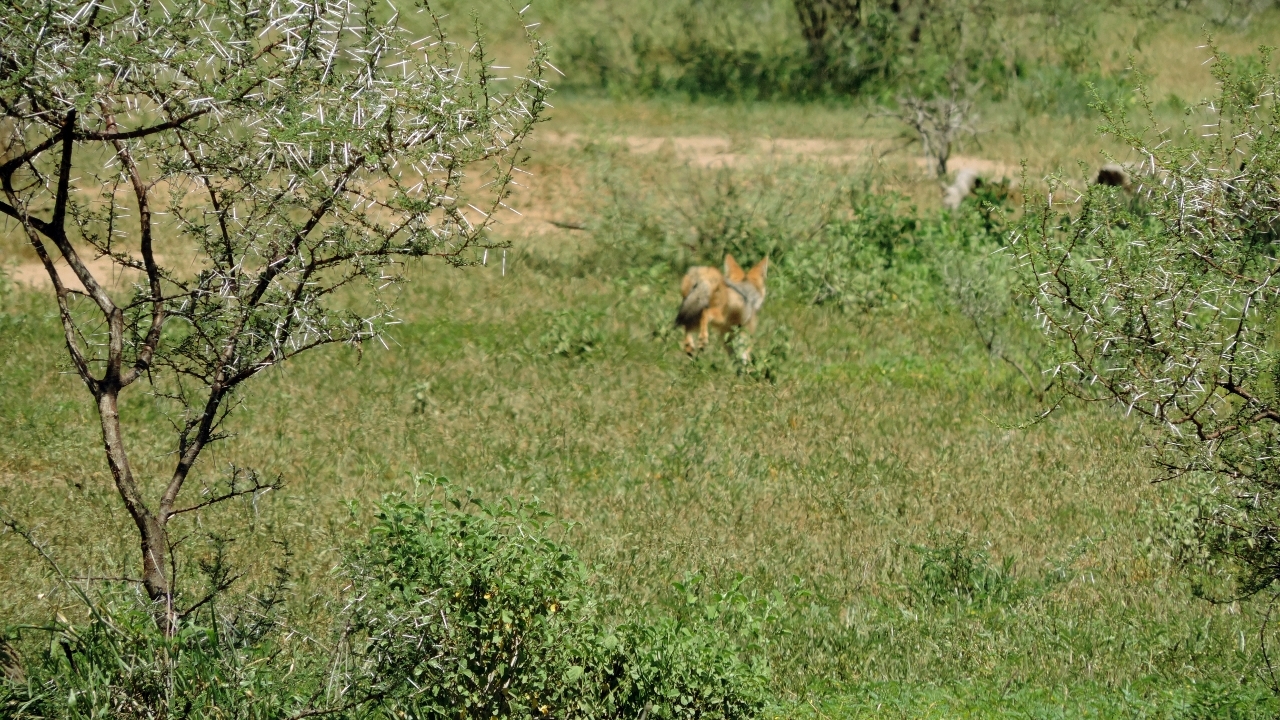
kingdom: Animalia
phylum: Chordata
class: Mammalia
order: Carnivora
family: Canidae
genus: Lupulella
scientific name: Lupulella
